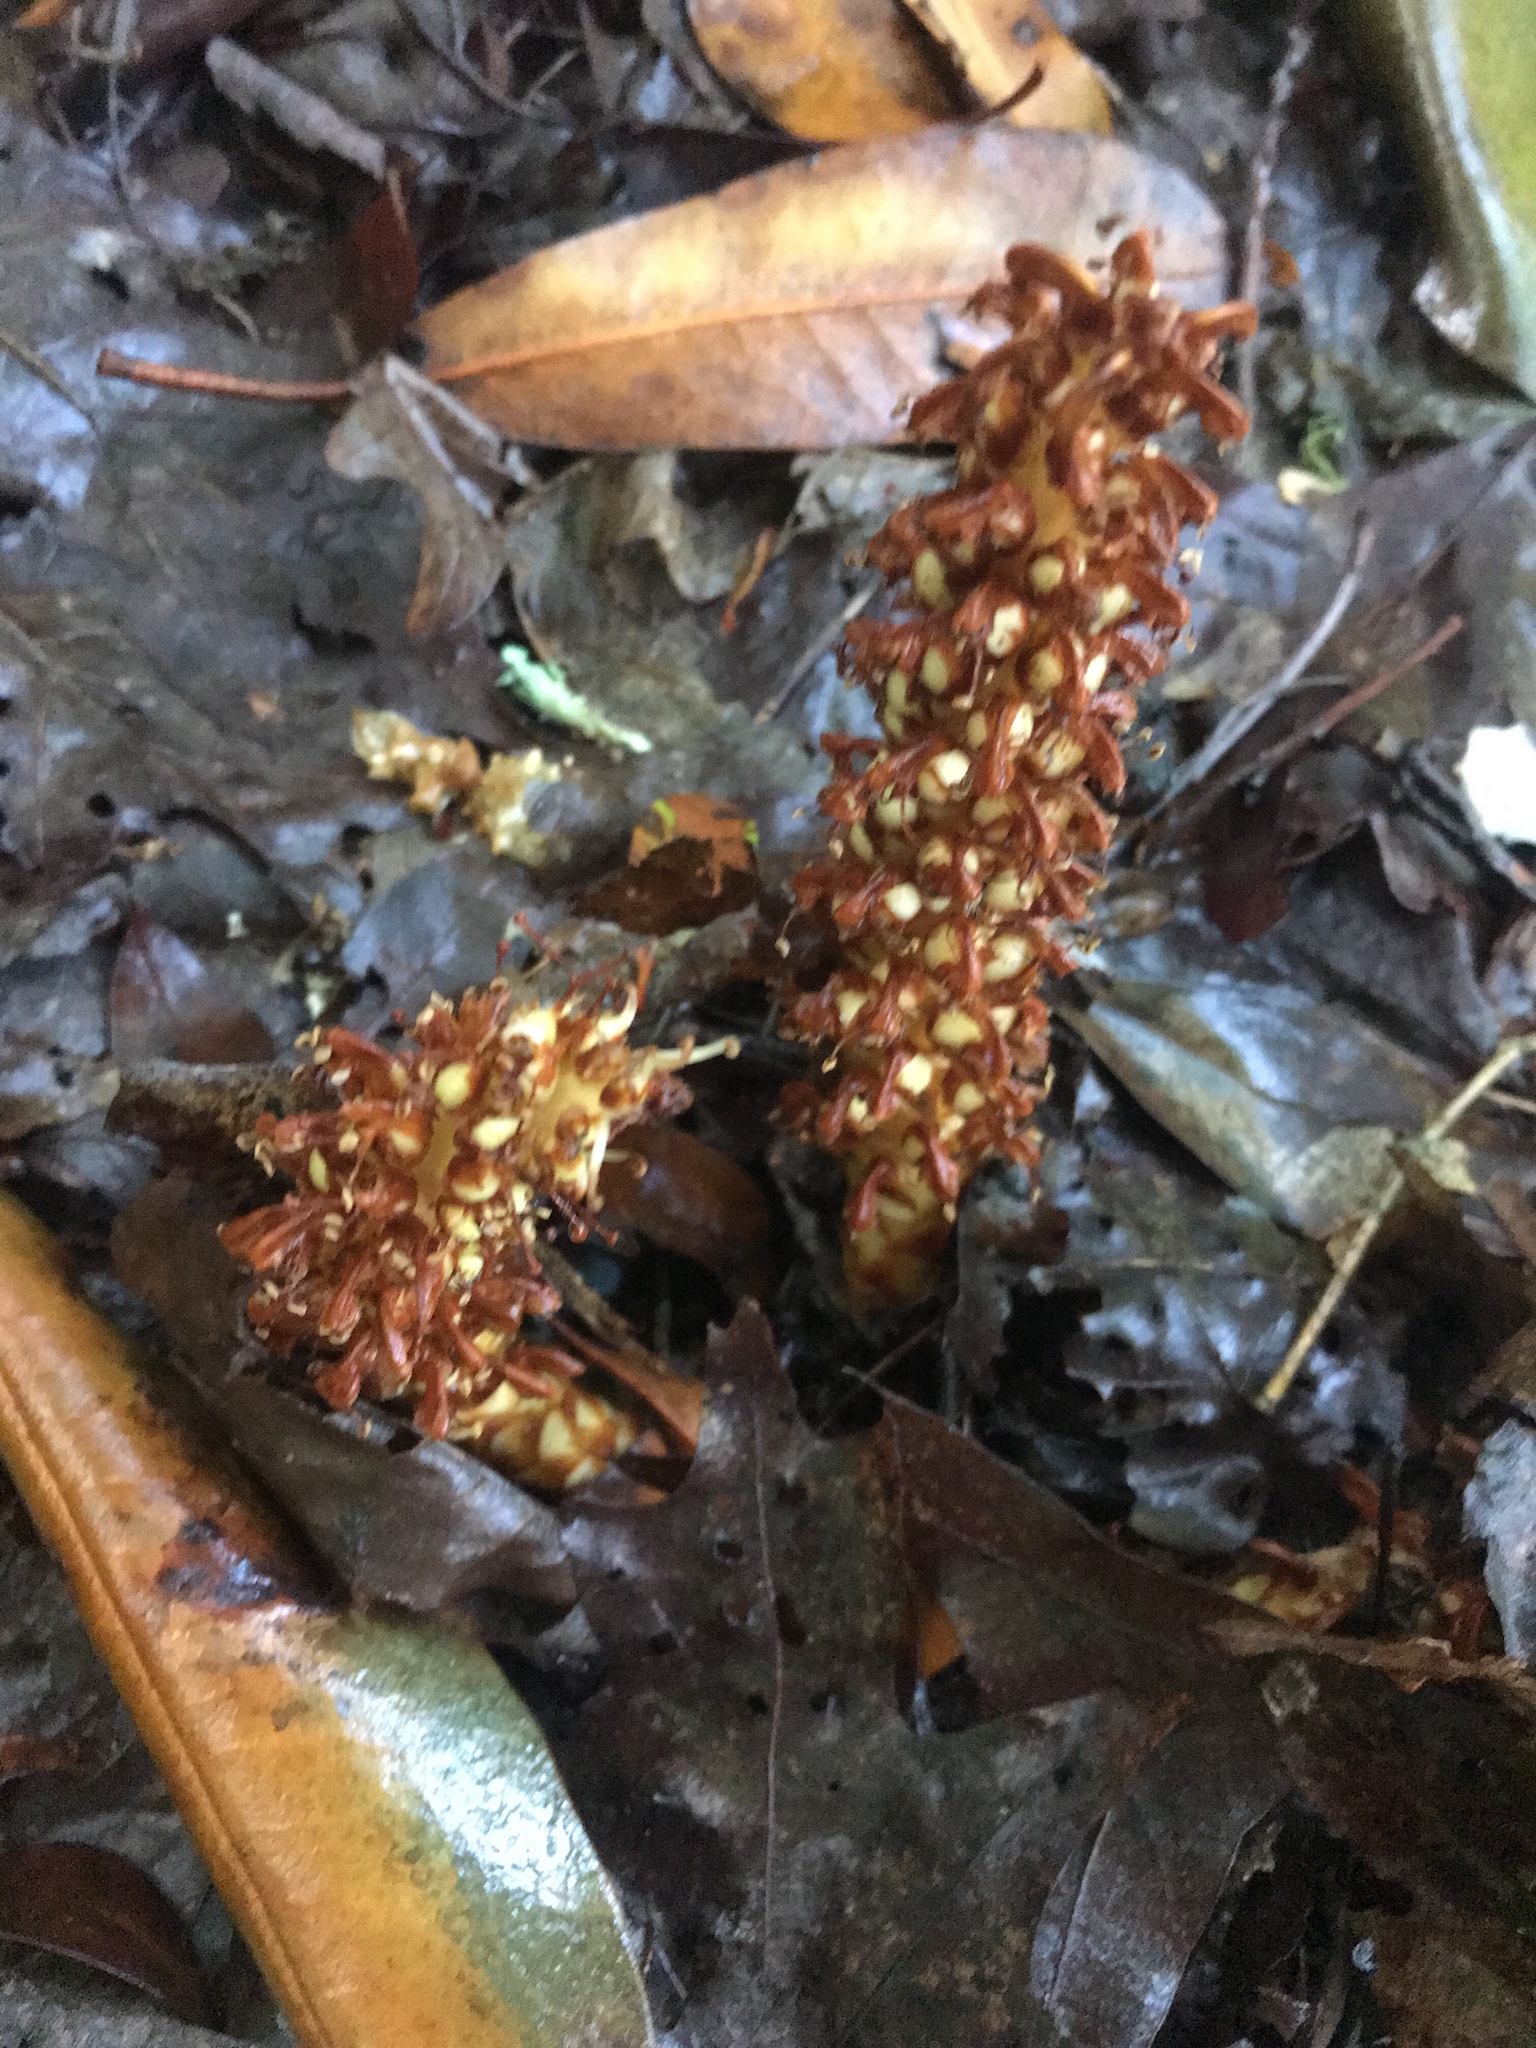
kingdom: Plantae
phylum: Tracheophyta
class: Magnoliopsida
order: Lamiales
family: Orobanchaceae
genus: Conopholis
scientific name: Conopholis americana
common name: American cancer-root
